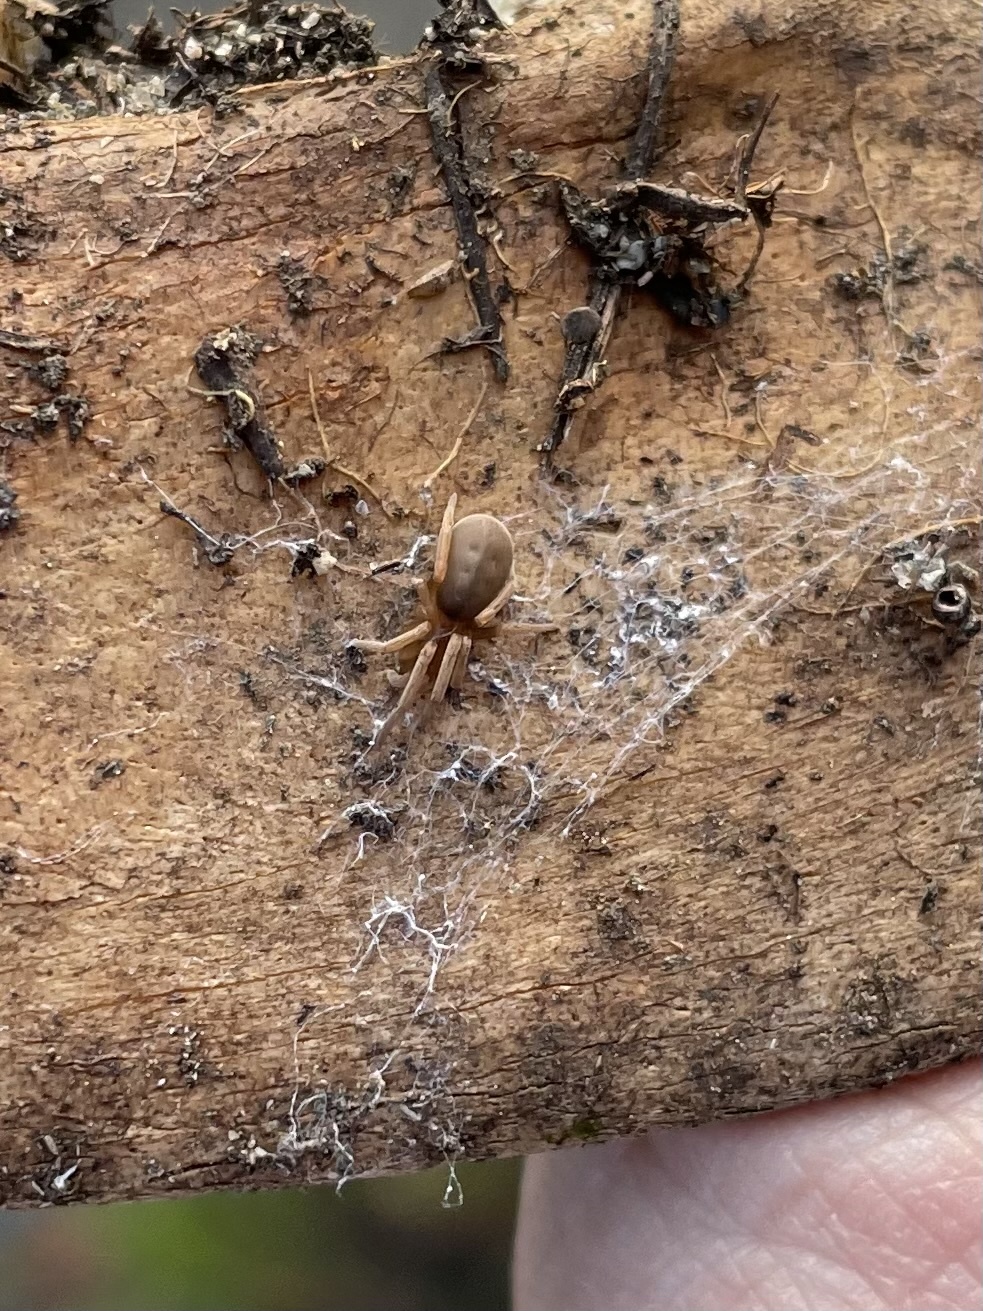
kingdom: Animalia
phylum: Arthropoda
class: Arachnida
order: Araneae
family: Filistatidae
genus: Kukulcania
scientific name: Kukulcania geophila
